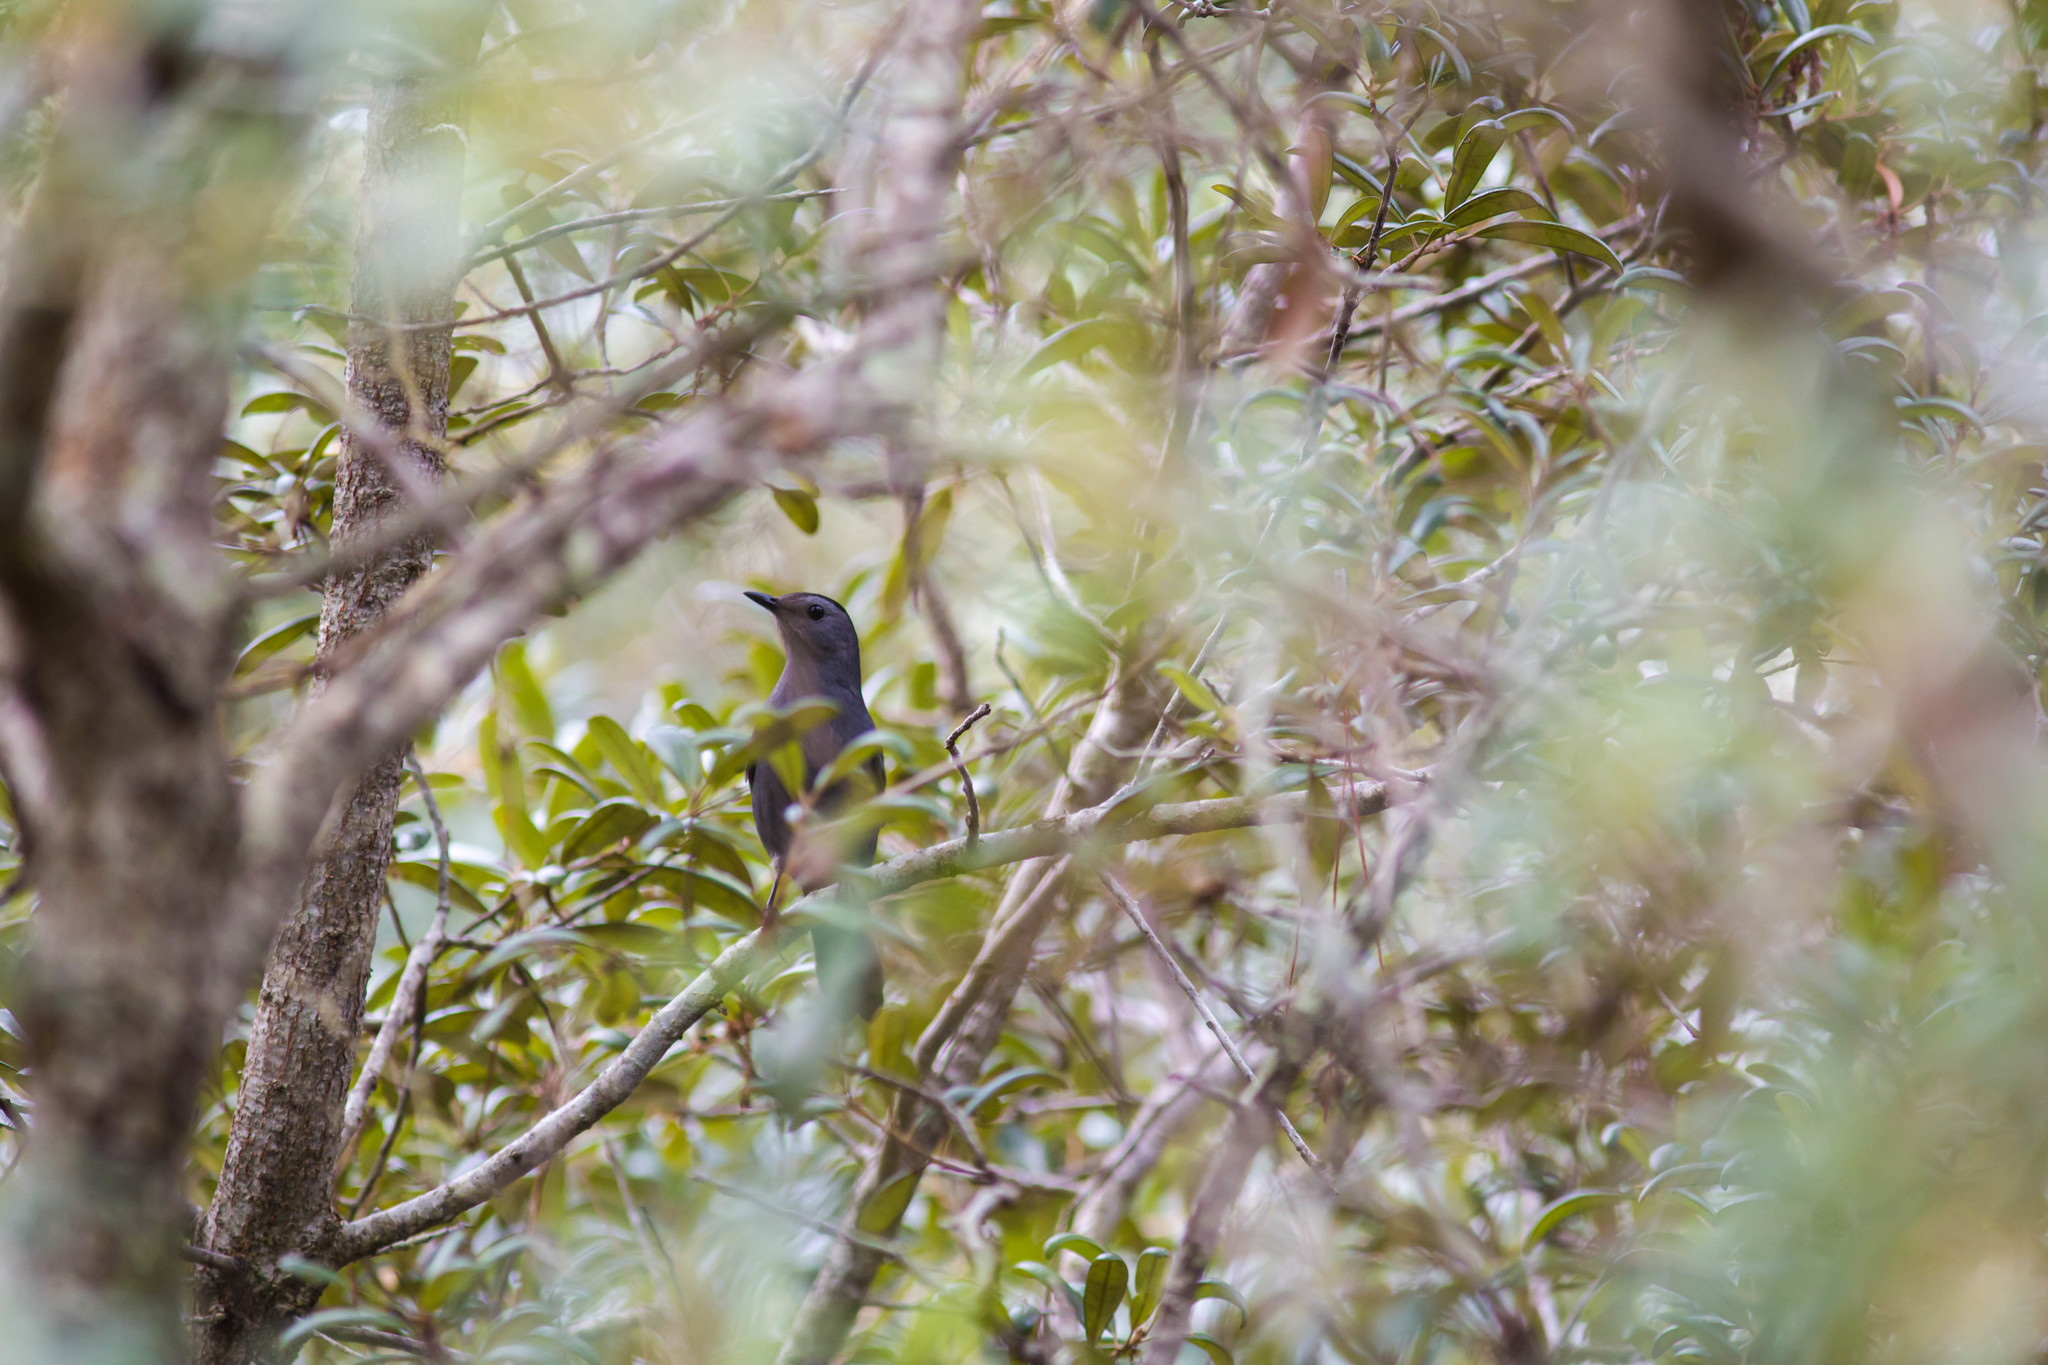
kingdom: Animalia
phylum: Chordata
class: Aves
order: Passeriformes
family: Mimidae
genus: Dumetella
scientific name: Dumetella carolinensis
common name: Gray catbird
